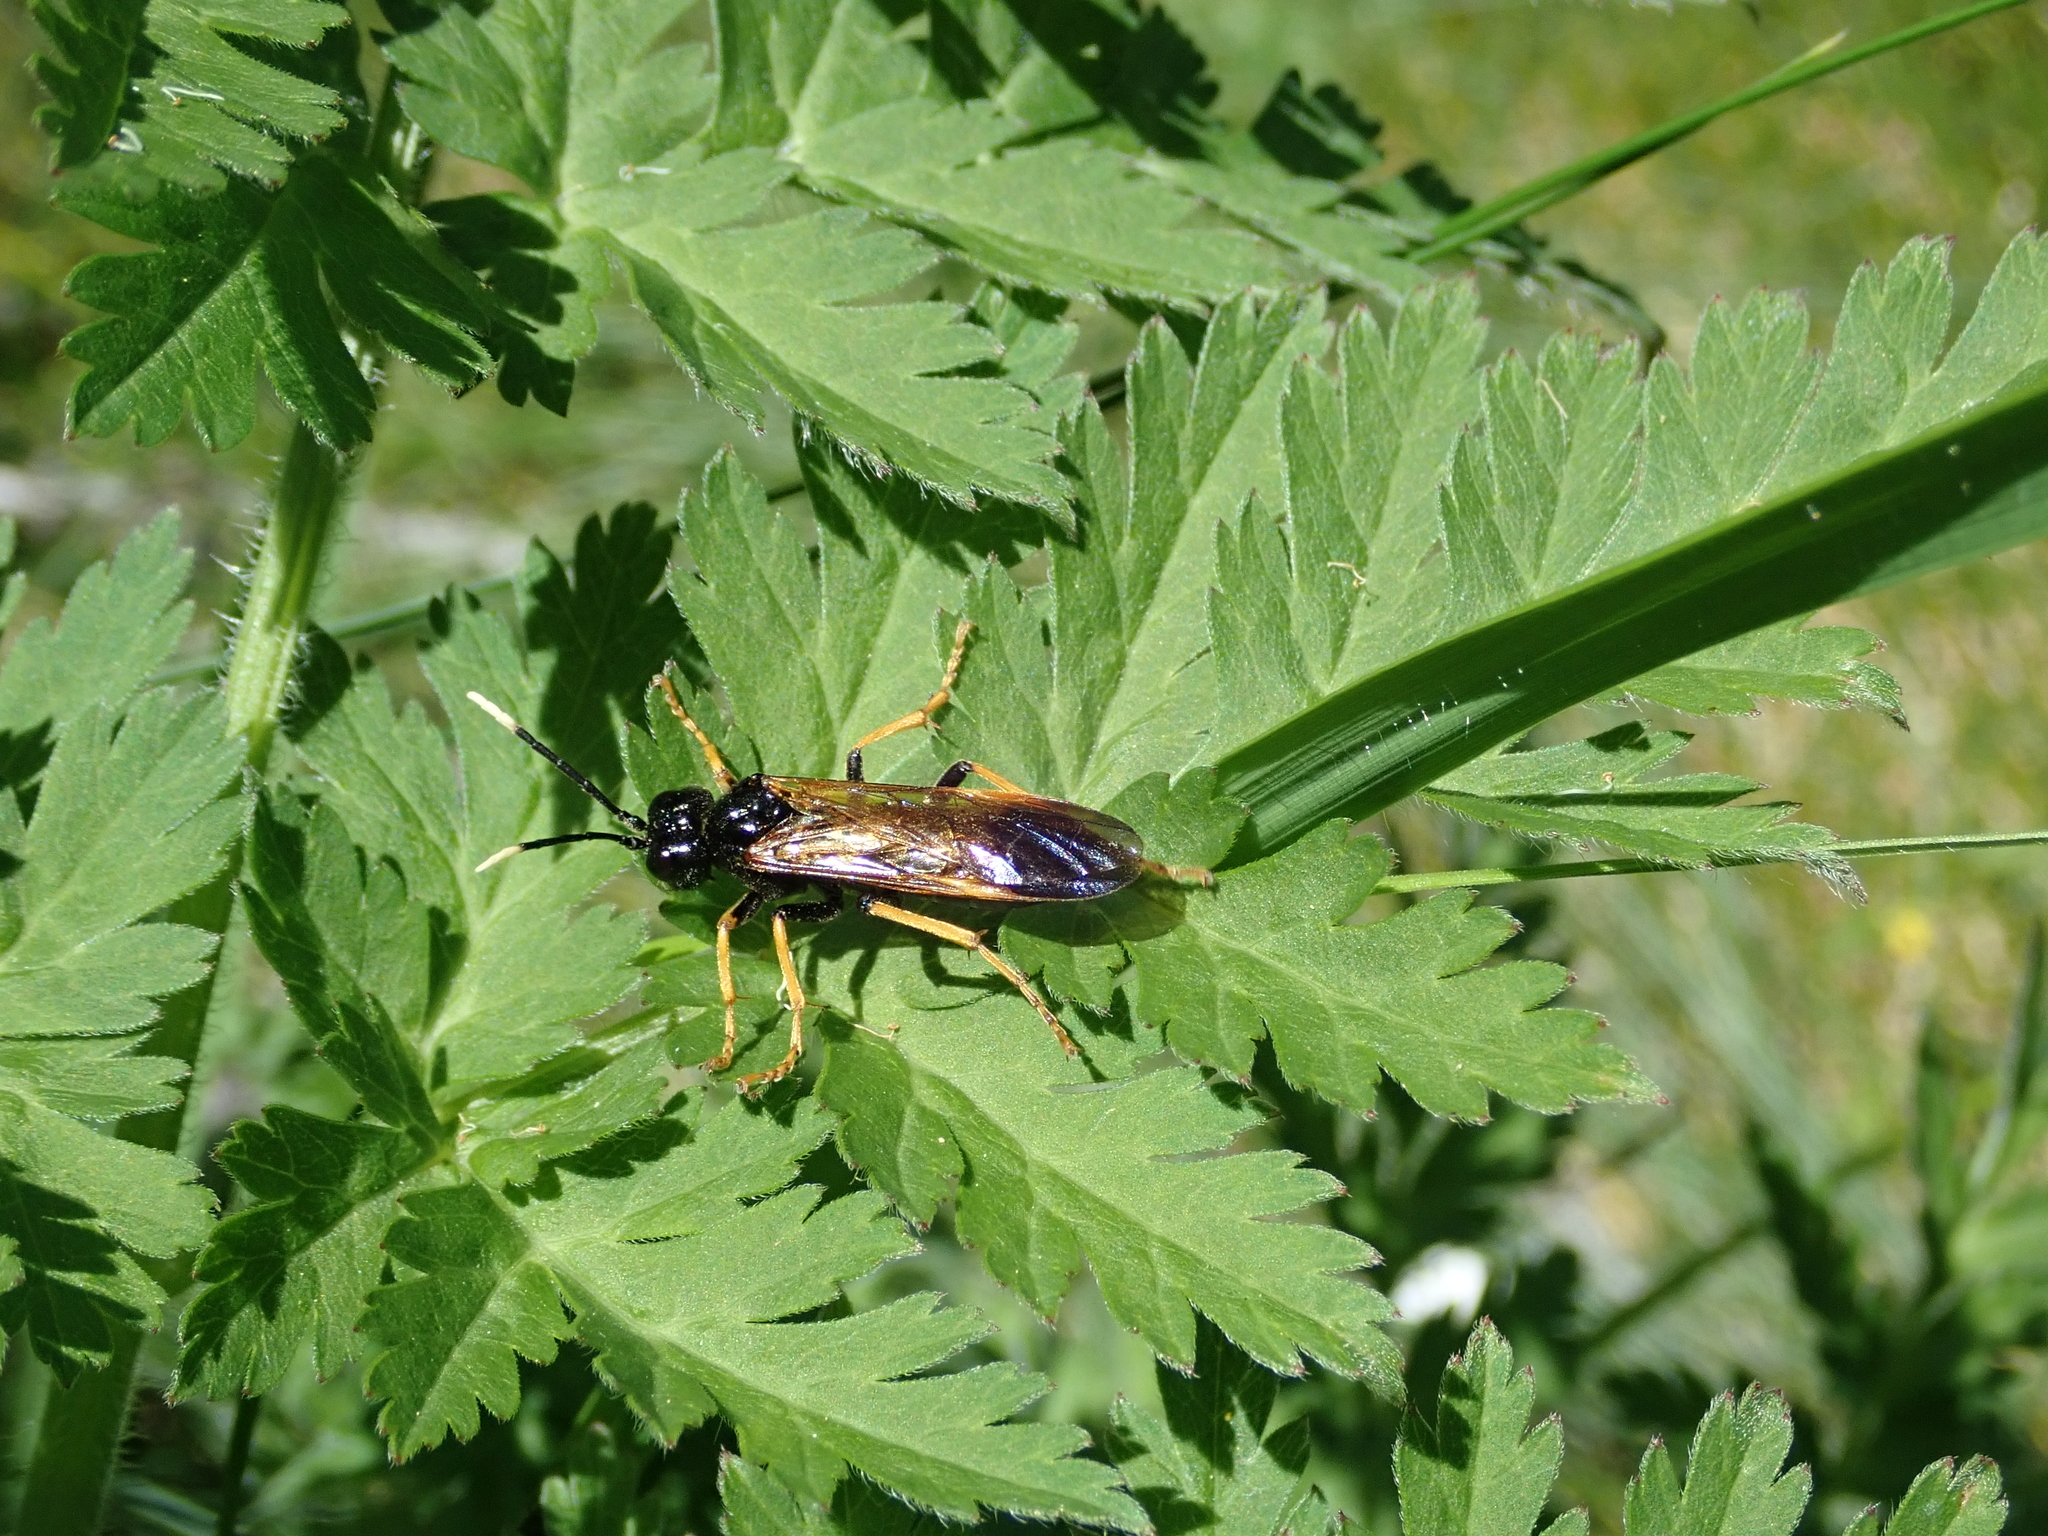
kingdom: Animalia
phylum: Arthropoda
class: Insecta
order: Hymenoptera
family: Tenthredinidae
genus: Tenthredo
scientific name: Tenthredo crassa
